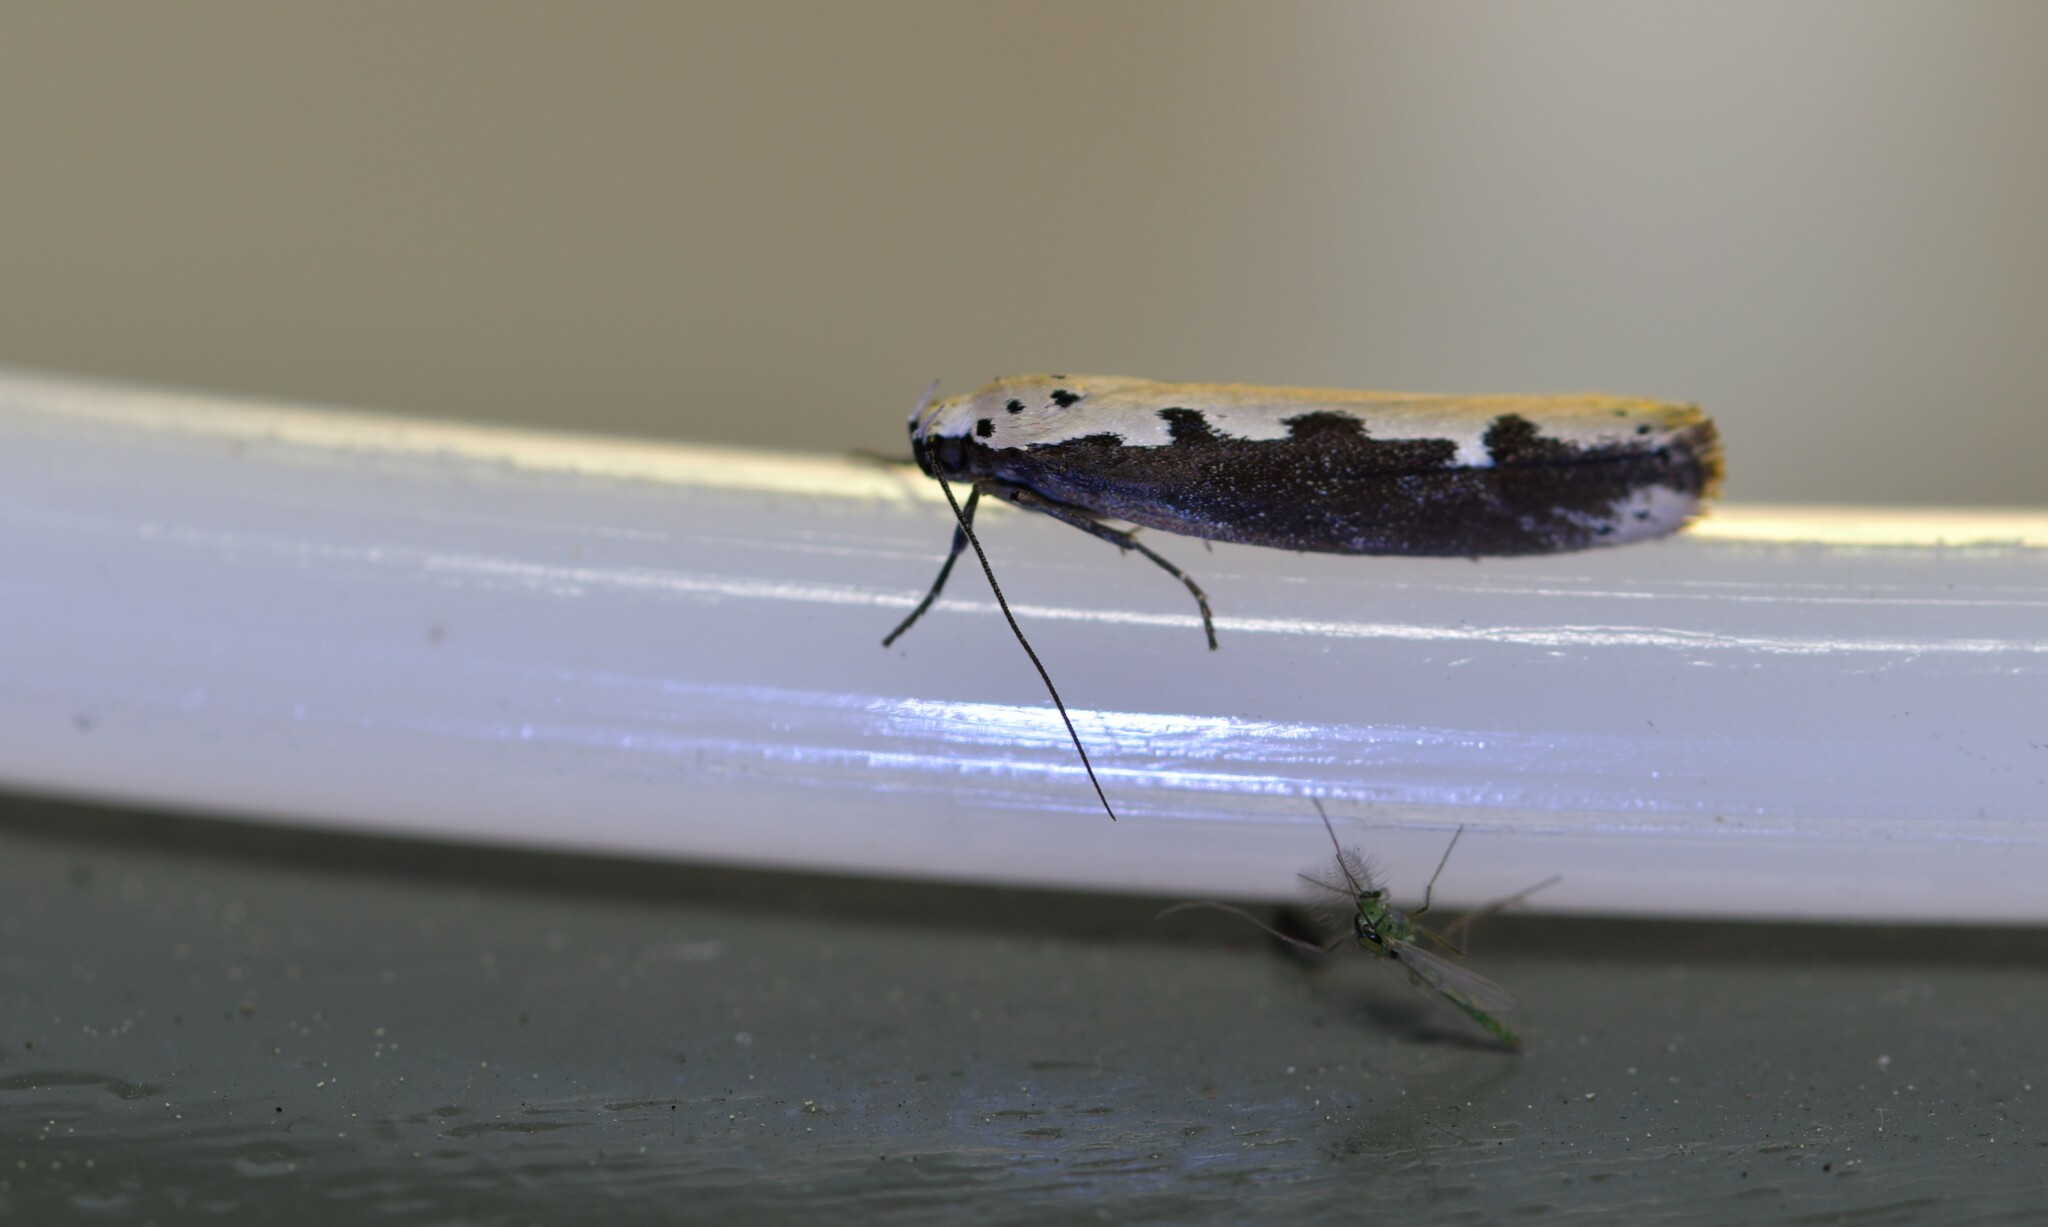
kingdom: Animalia
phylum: Arthropoda
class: Insecta
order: Lepidoptera
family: Ethmiidae
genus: Ethmia
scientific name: Ethmia bipunctella
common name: Bordered ermel
